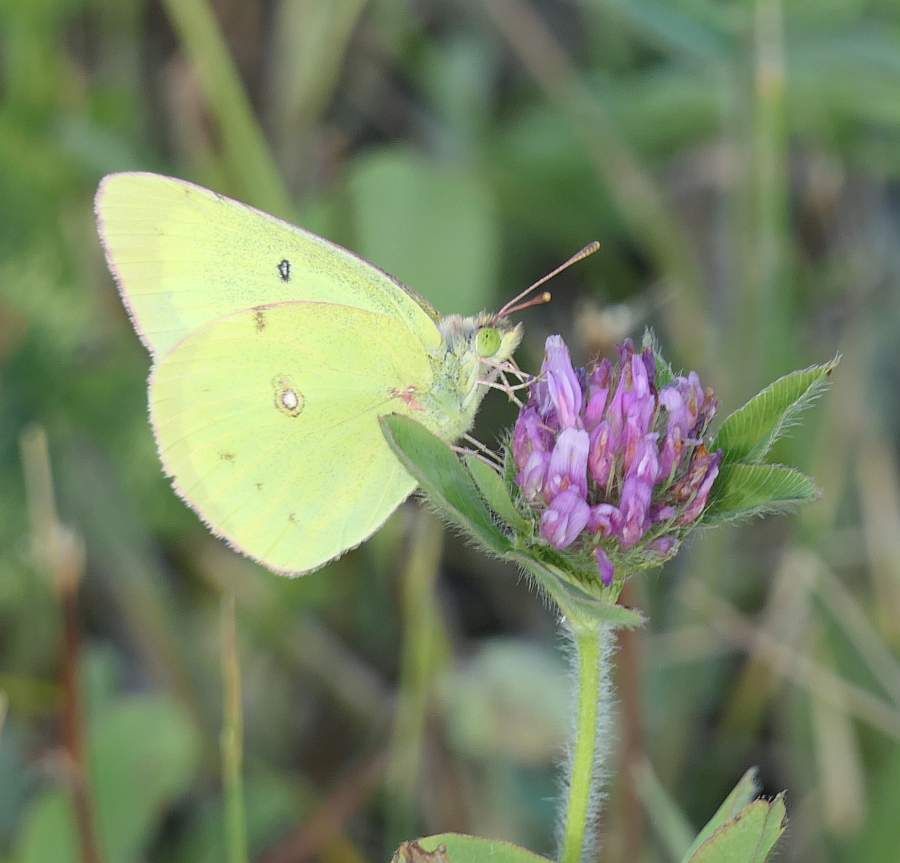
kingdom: Animalia
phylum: Arthropoda
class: Insecta
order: Lepidoptera
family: Pieridae
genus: Colias
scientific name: Colias philodice
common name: Clouded sulphur
